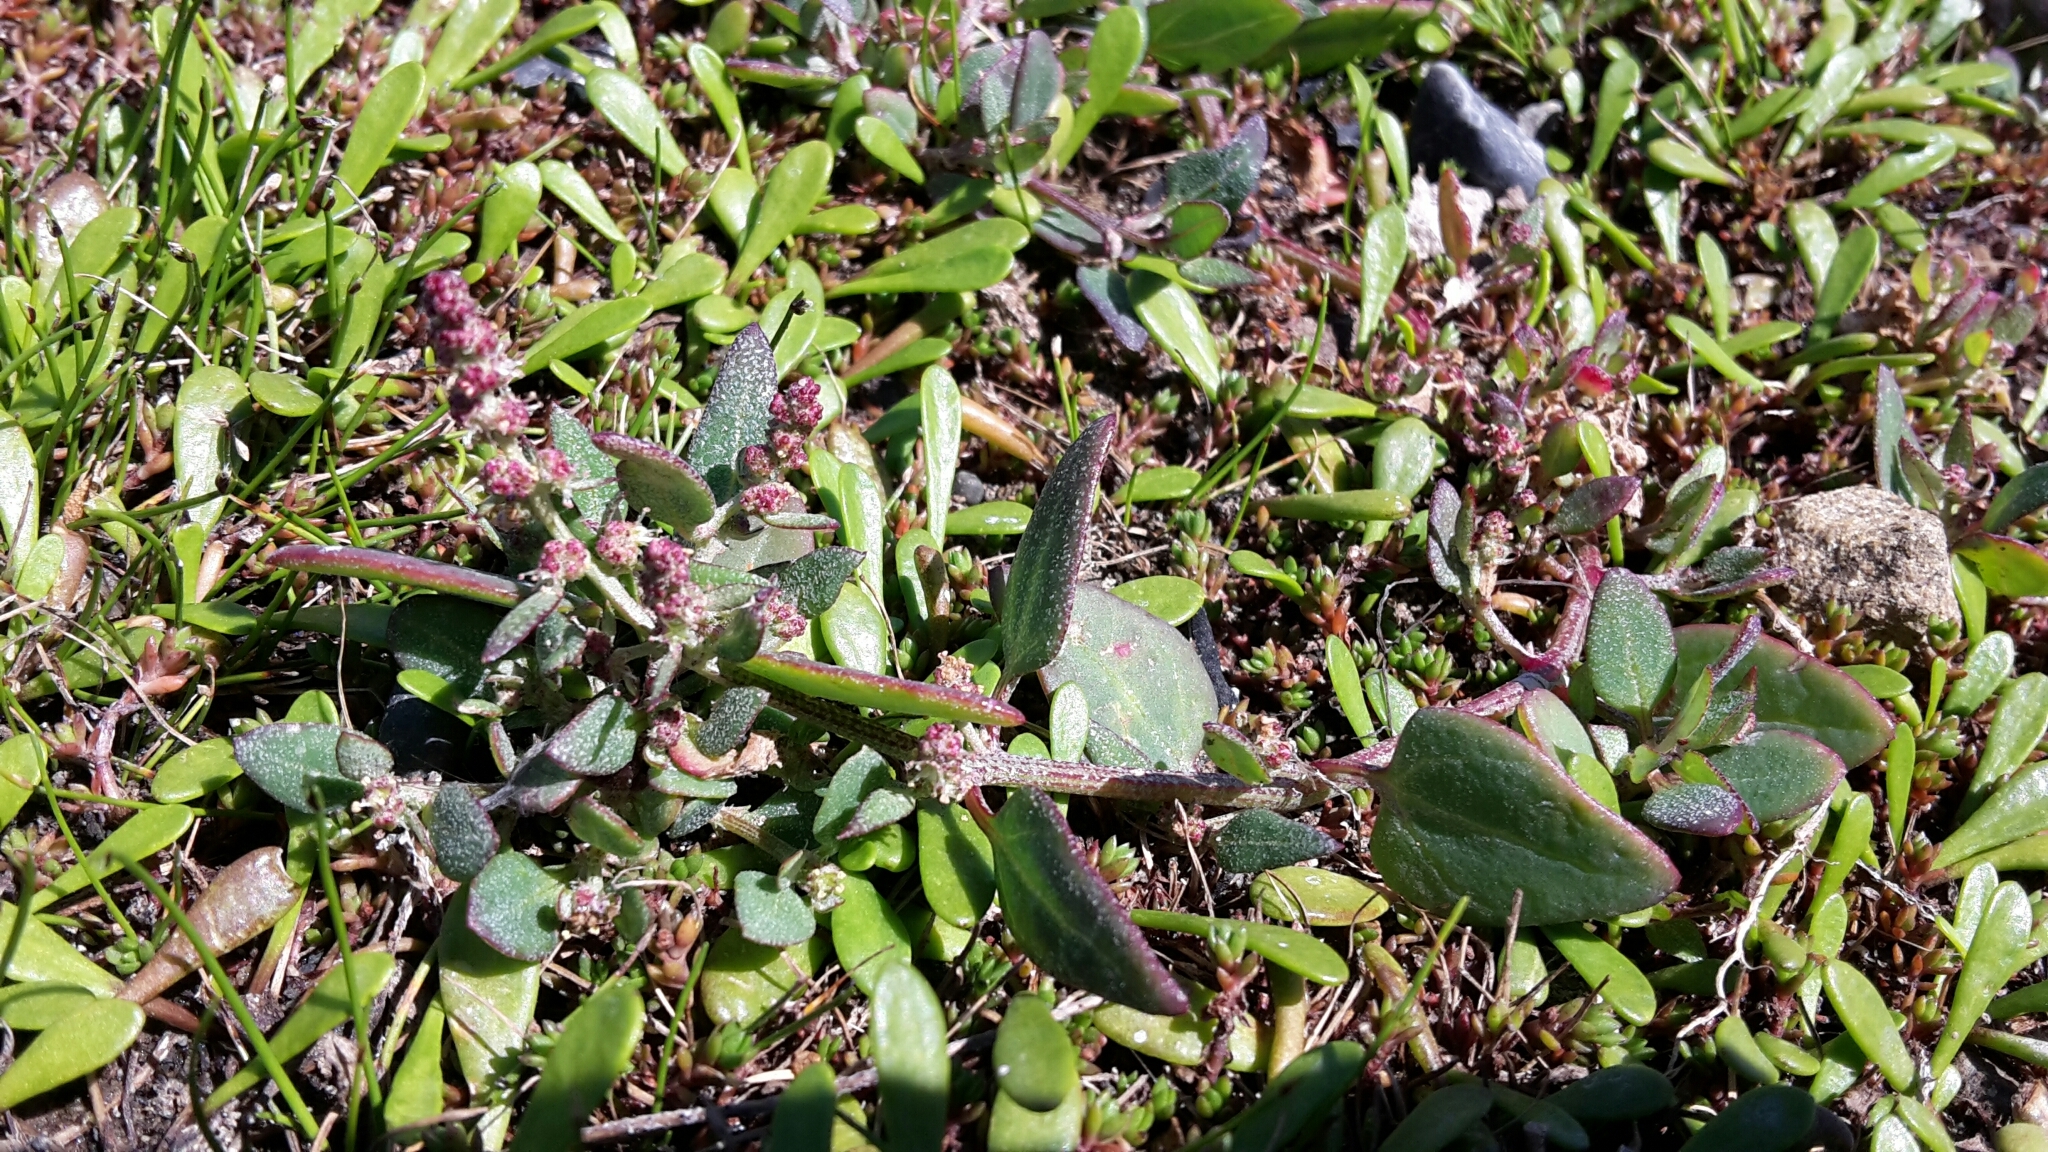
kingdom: Plantae
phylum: Tracheophyta
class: Magnoliopsida
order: Caryophyllales
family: Amaranthaceae
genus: Atriplex
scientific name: Atriplex prostrata
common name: Spear-leaved orache
